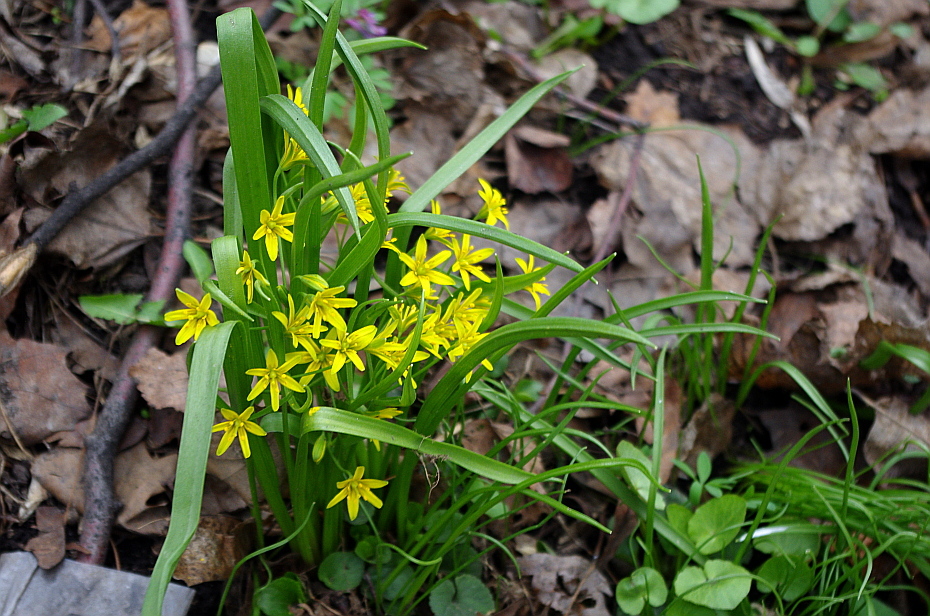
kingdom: Plantae
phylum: Tracheophyta
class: Liliopsida
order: Liliales
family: Liliaceae
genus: Gagea
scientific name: Gagea lutea
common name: Yellow star-of-bethlehem
